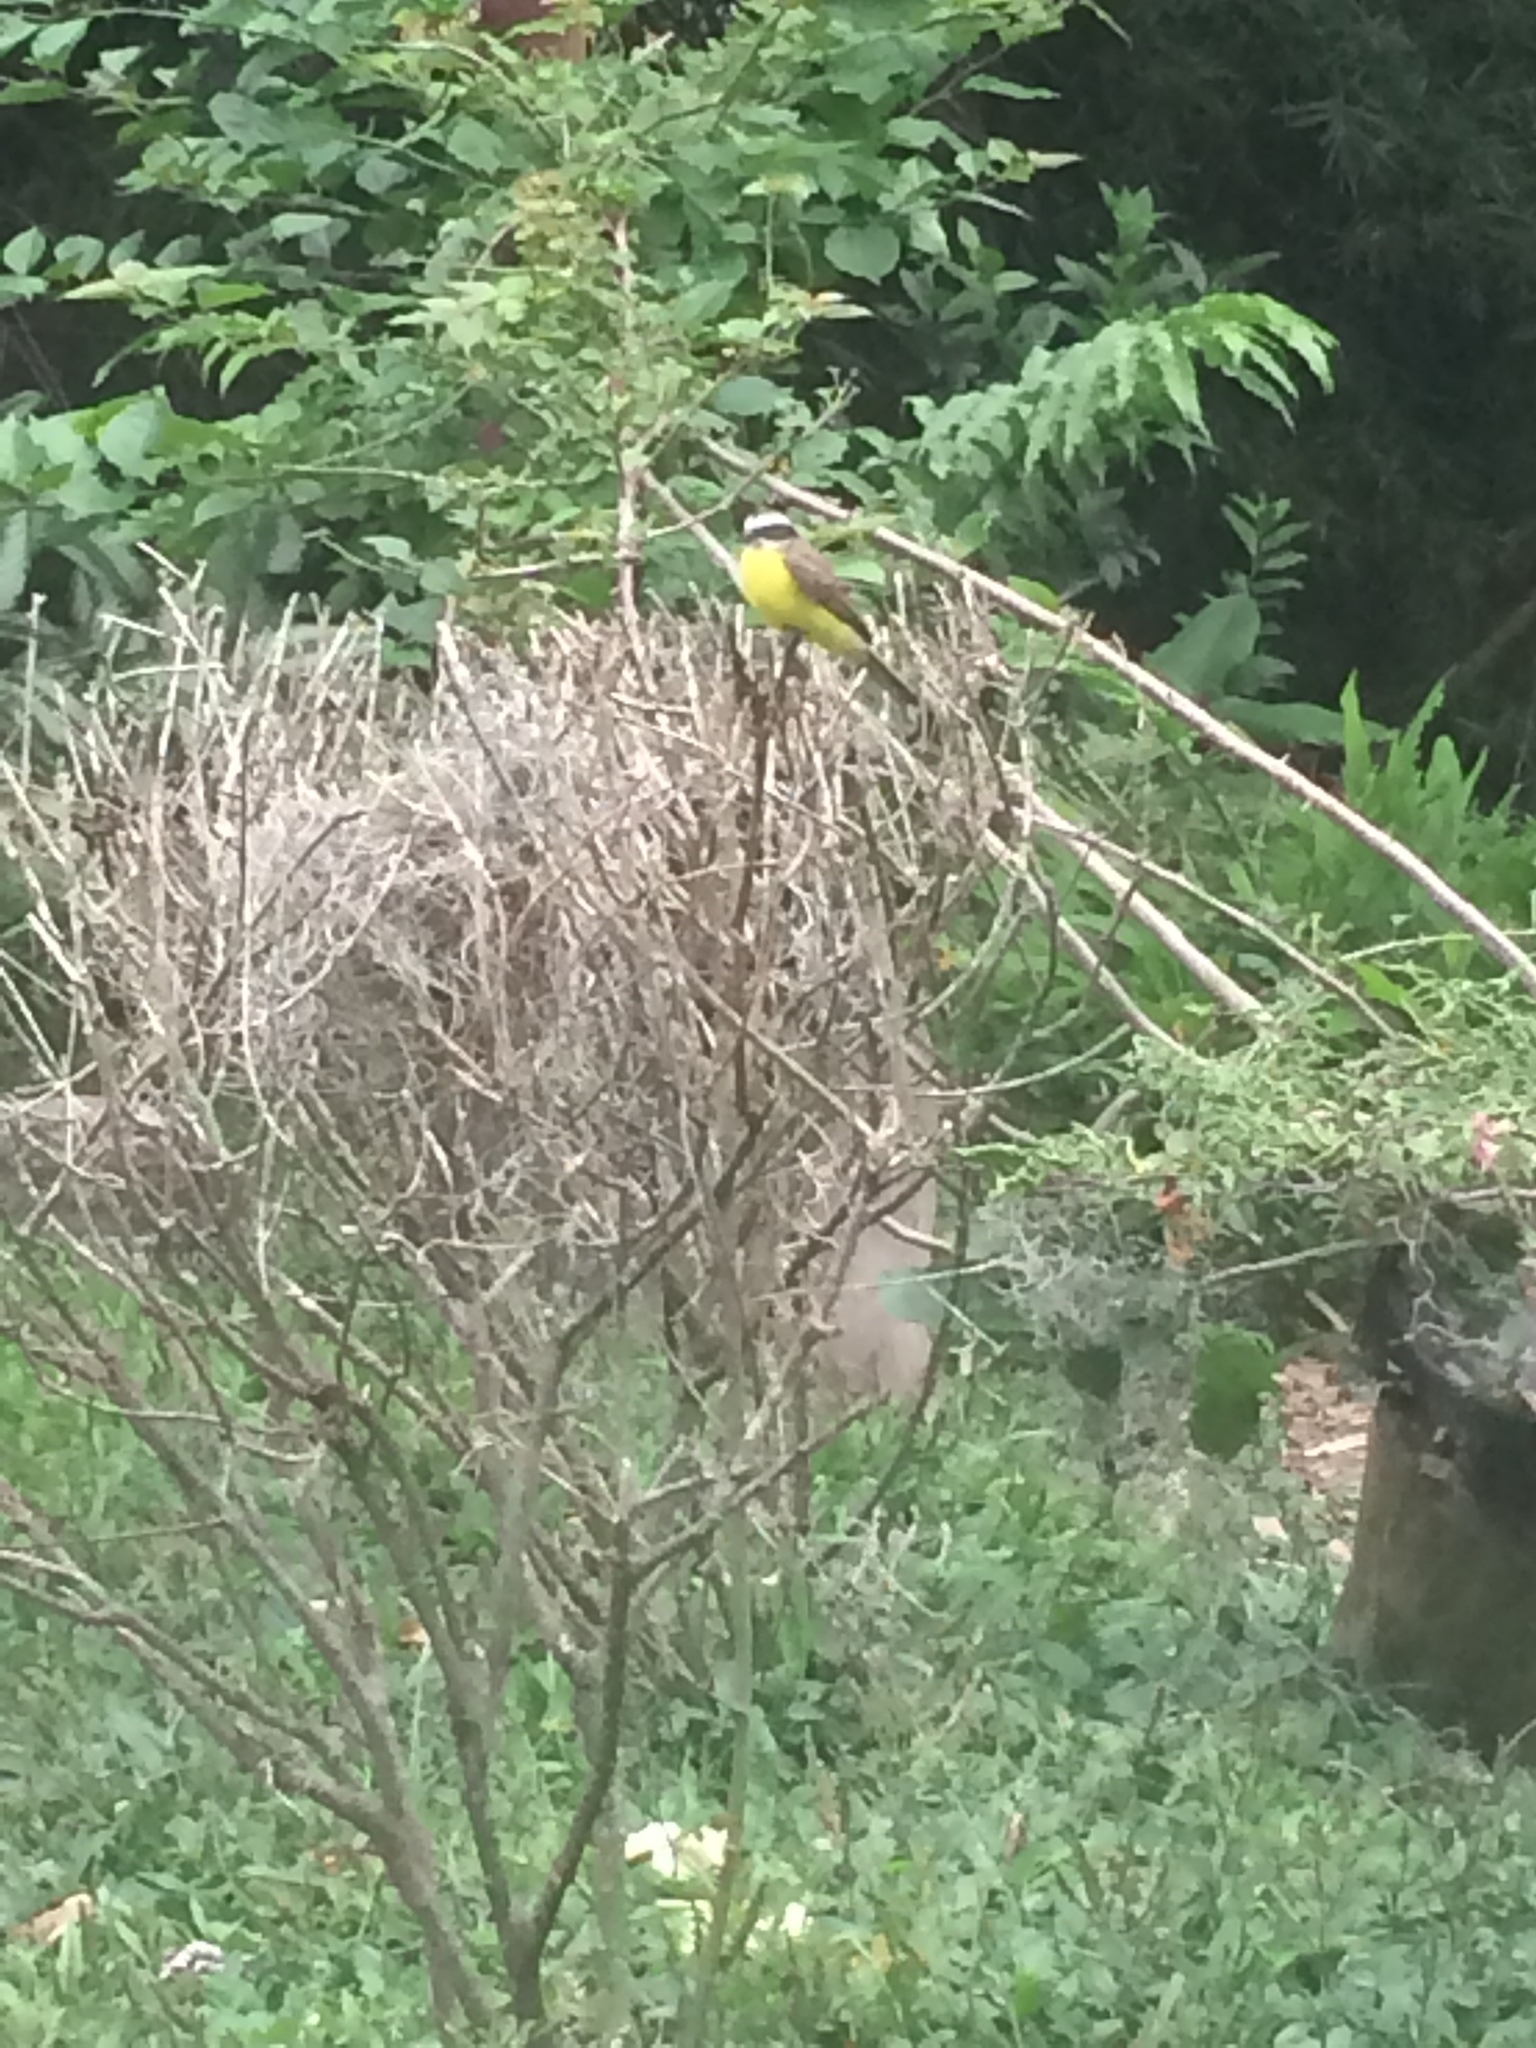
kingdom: Animalia
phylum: Chordata
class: Aves
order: Passeriformes
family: Tyrannidae
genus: Myiozetetes
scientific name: Myiozetetes cayanensis
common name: Rusty-margined flycatcher
